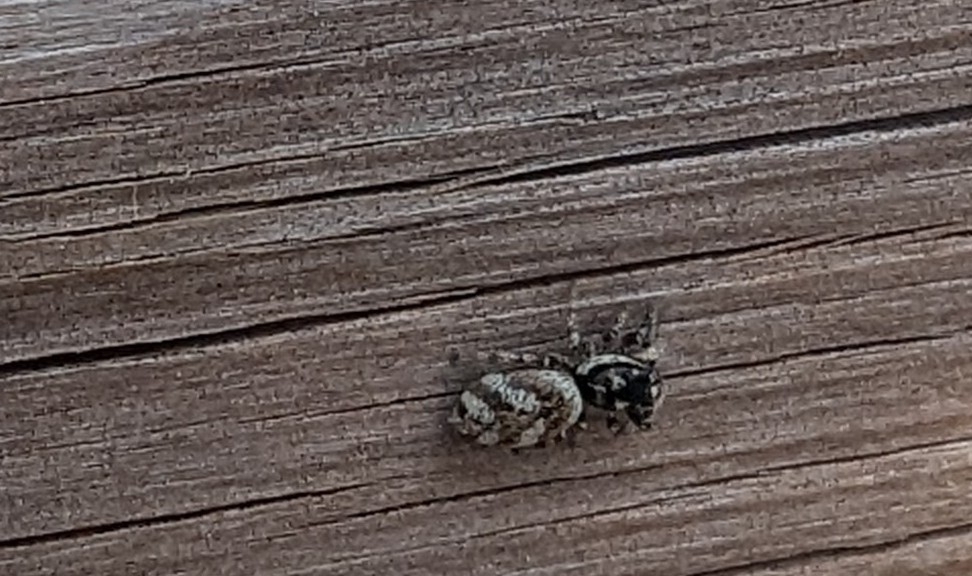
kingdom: Animalia
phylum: Arthropoda
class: Arachnida
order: Araneae
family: Salticidae
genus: Salticus
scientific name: Salticus scenicus
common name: Zebra jumper
